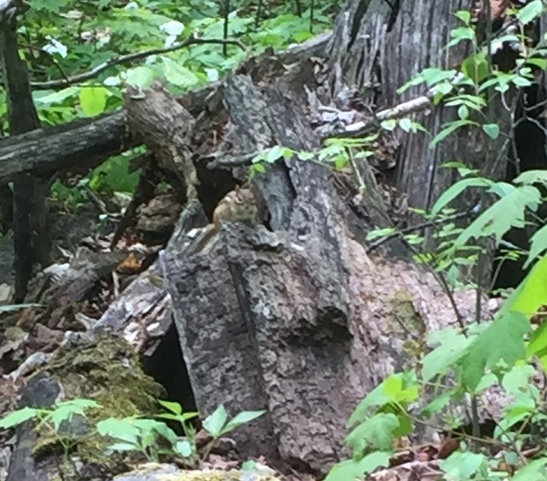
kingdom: Animalia
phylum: Chordata
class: Mammalia
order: Rodentia
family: Sciuridae
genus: Tamias
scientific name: Tamias striatus
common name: Eastern chipmunk
